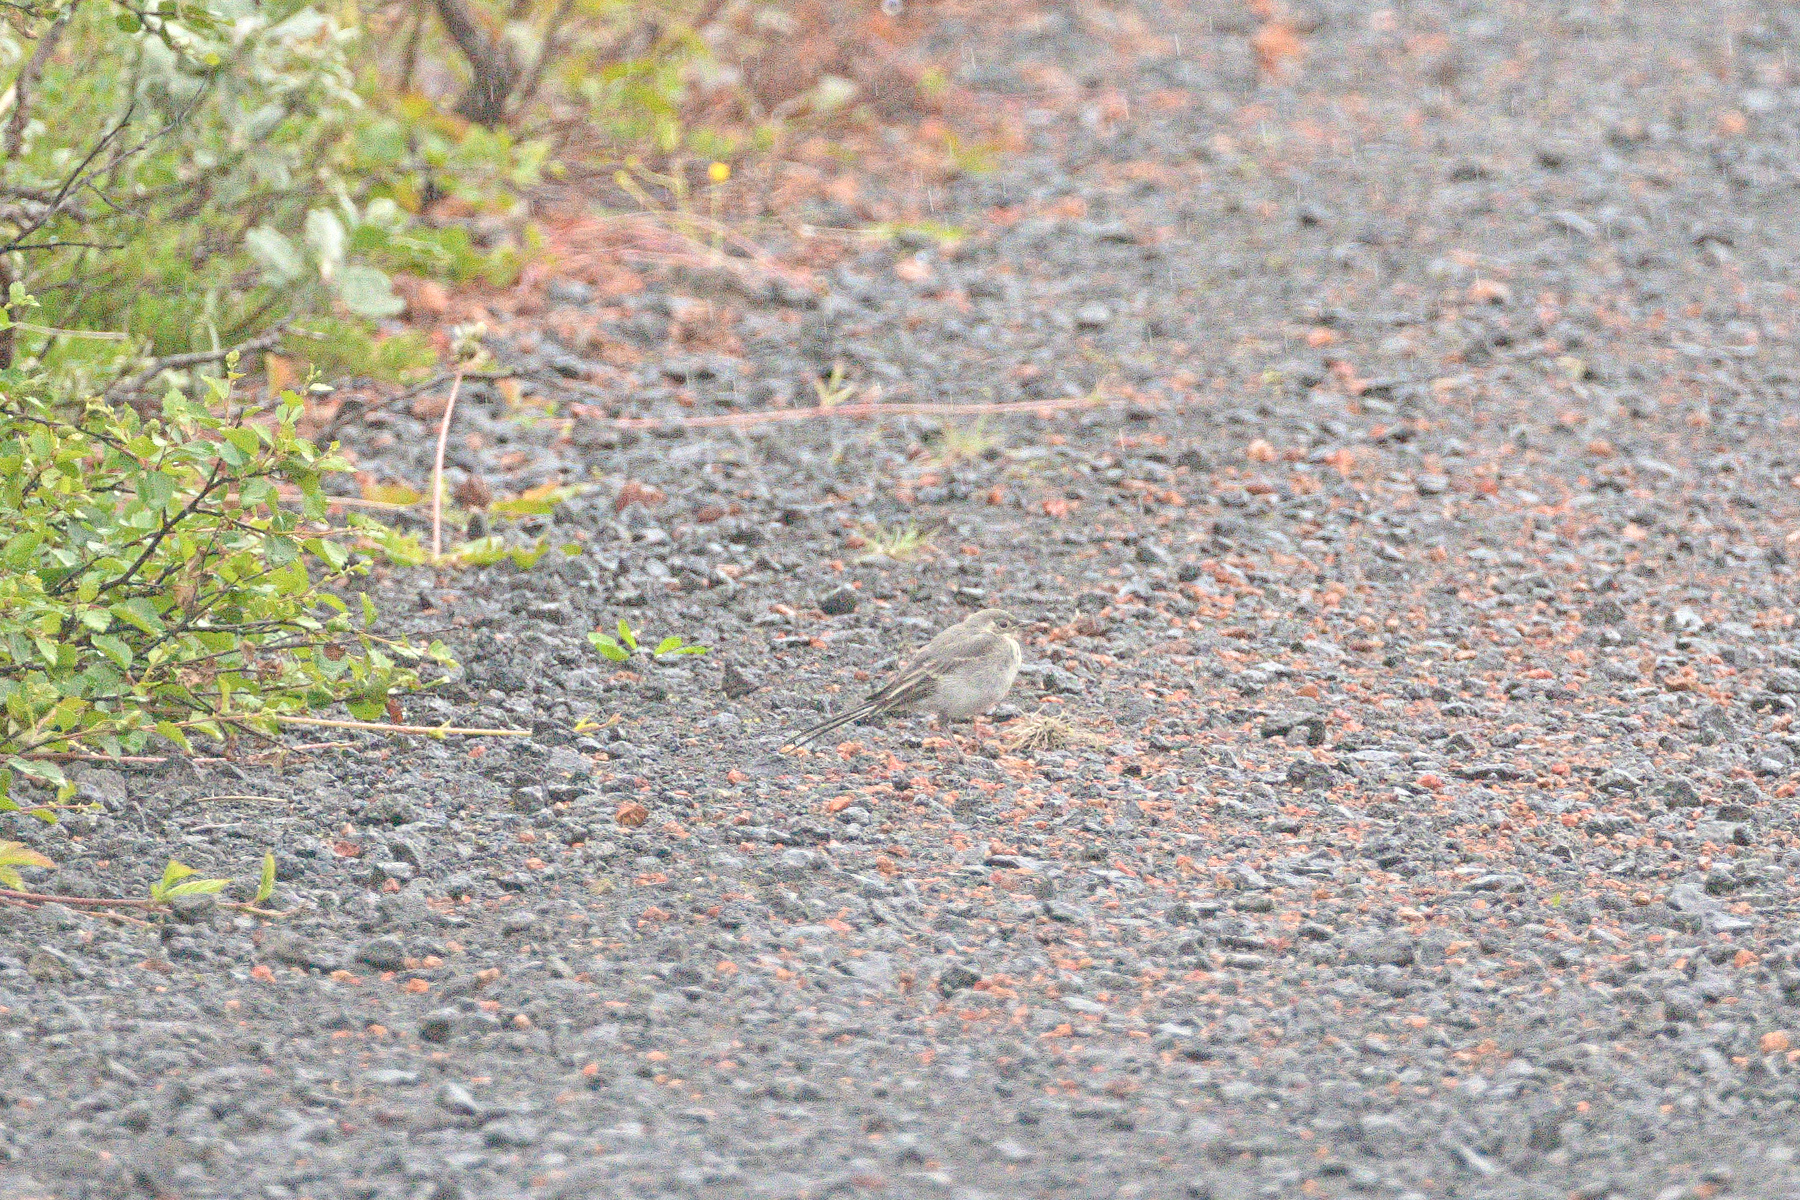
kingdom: Animalia
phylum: Chordata
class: Aves
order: Passeriformes
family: Motacillidae
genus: Motacilla
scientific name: Motacilla alba
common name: White wagtail
